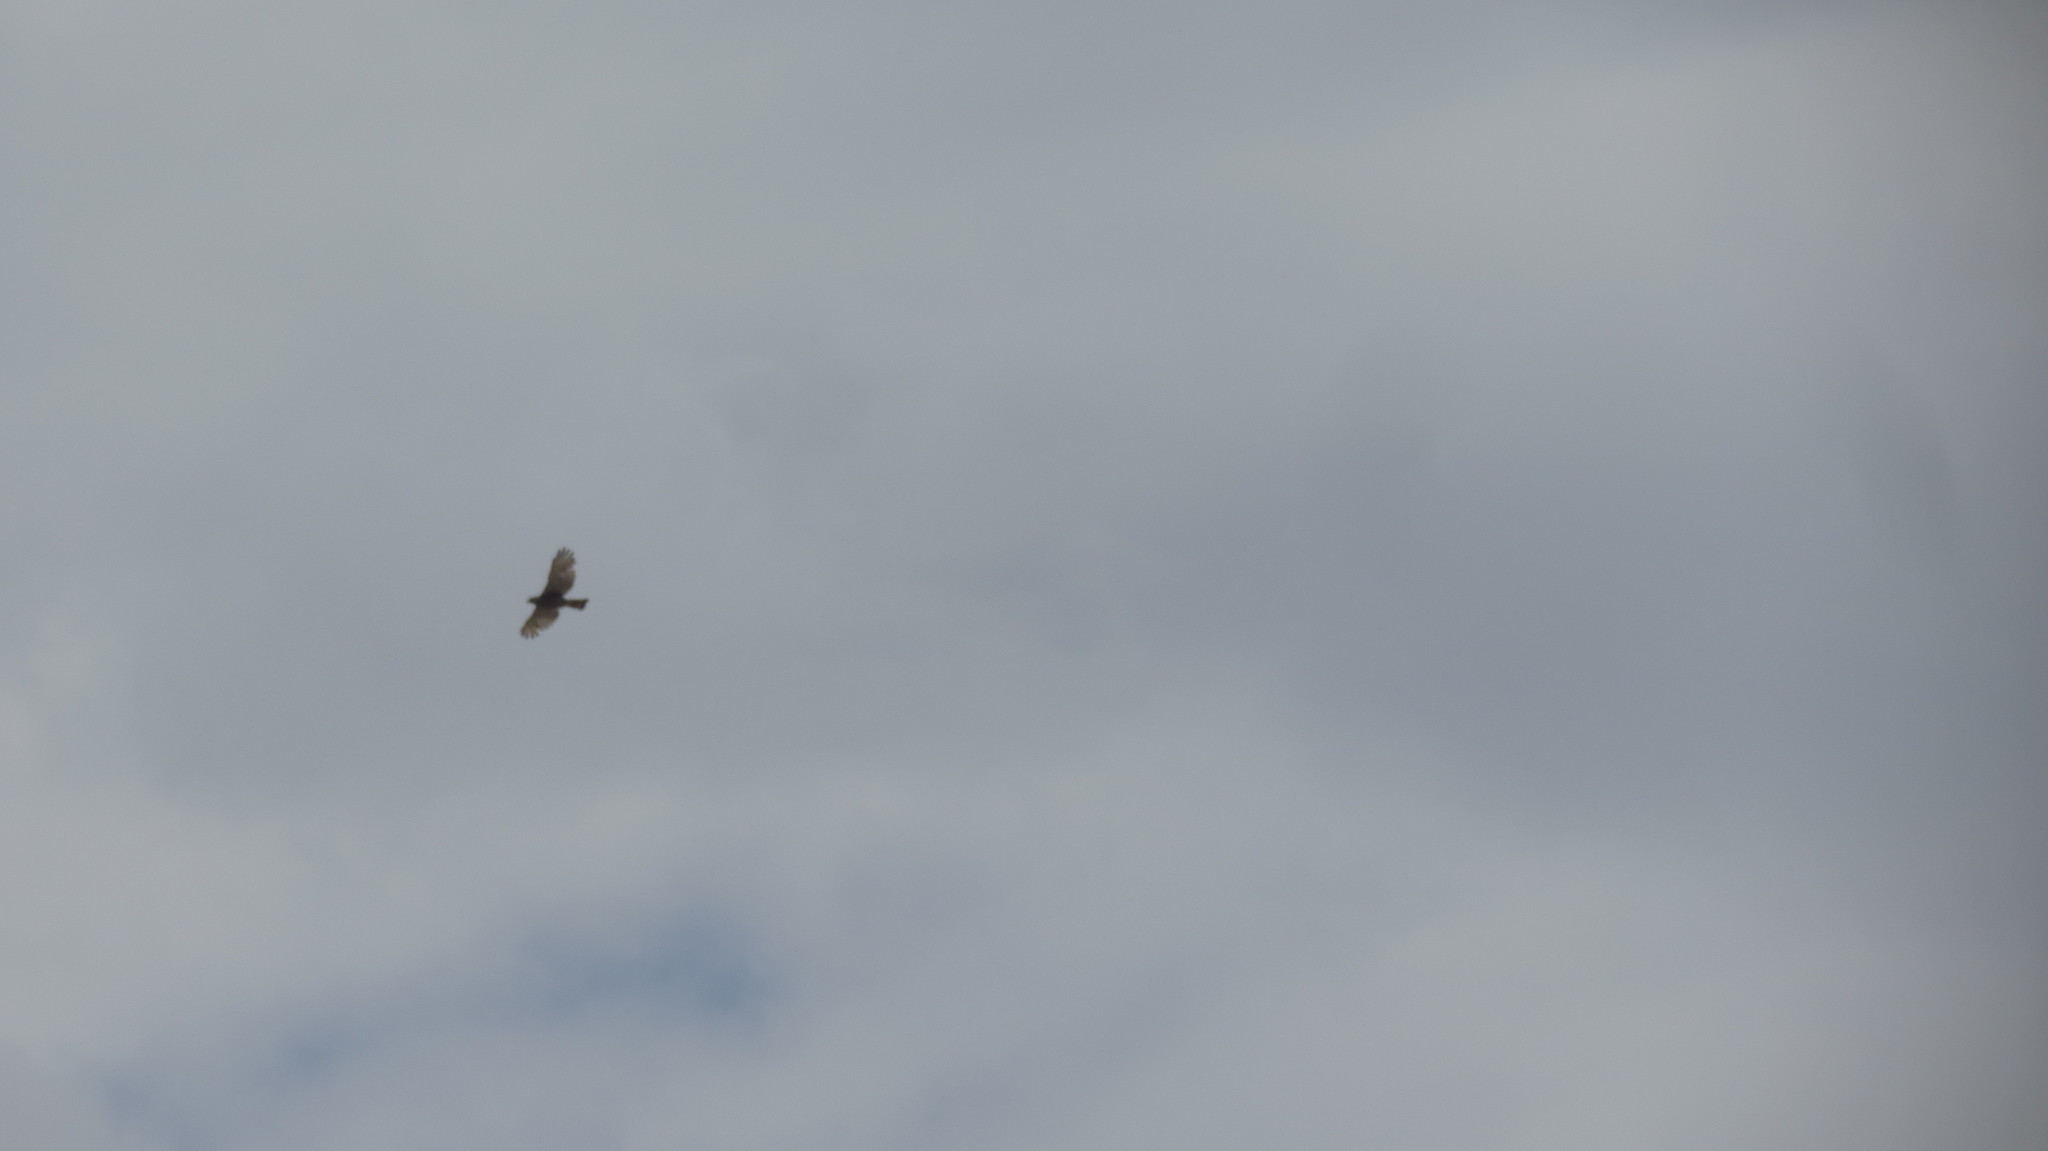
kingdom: Animalia
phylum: Chordata
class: Aves
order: Accipitriformes
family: Accipitridae
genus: Buteo
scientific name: Buteo nitidus
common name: Grey-lined hawk
